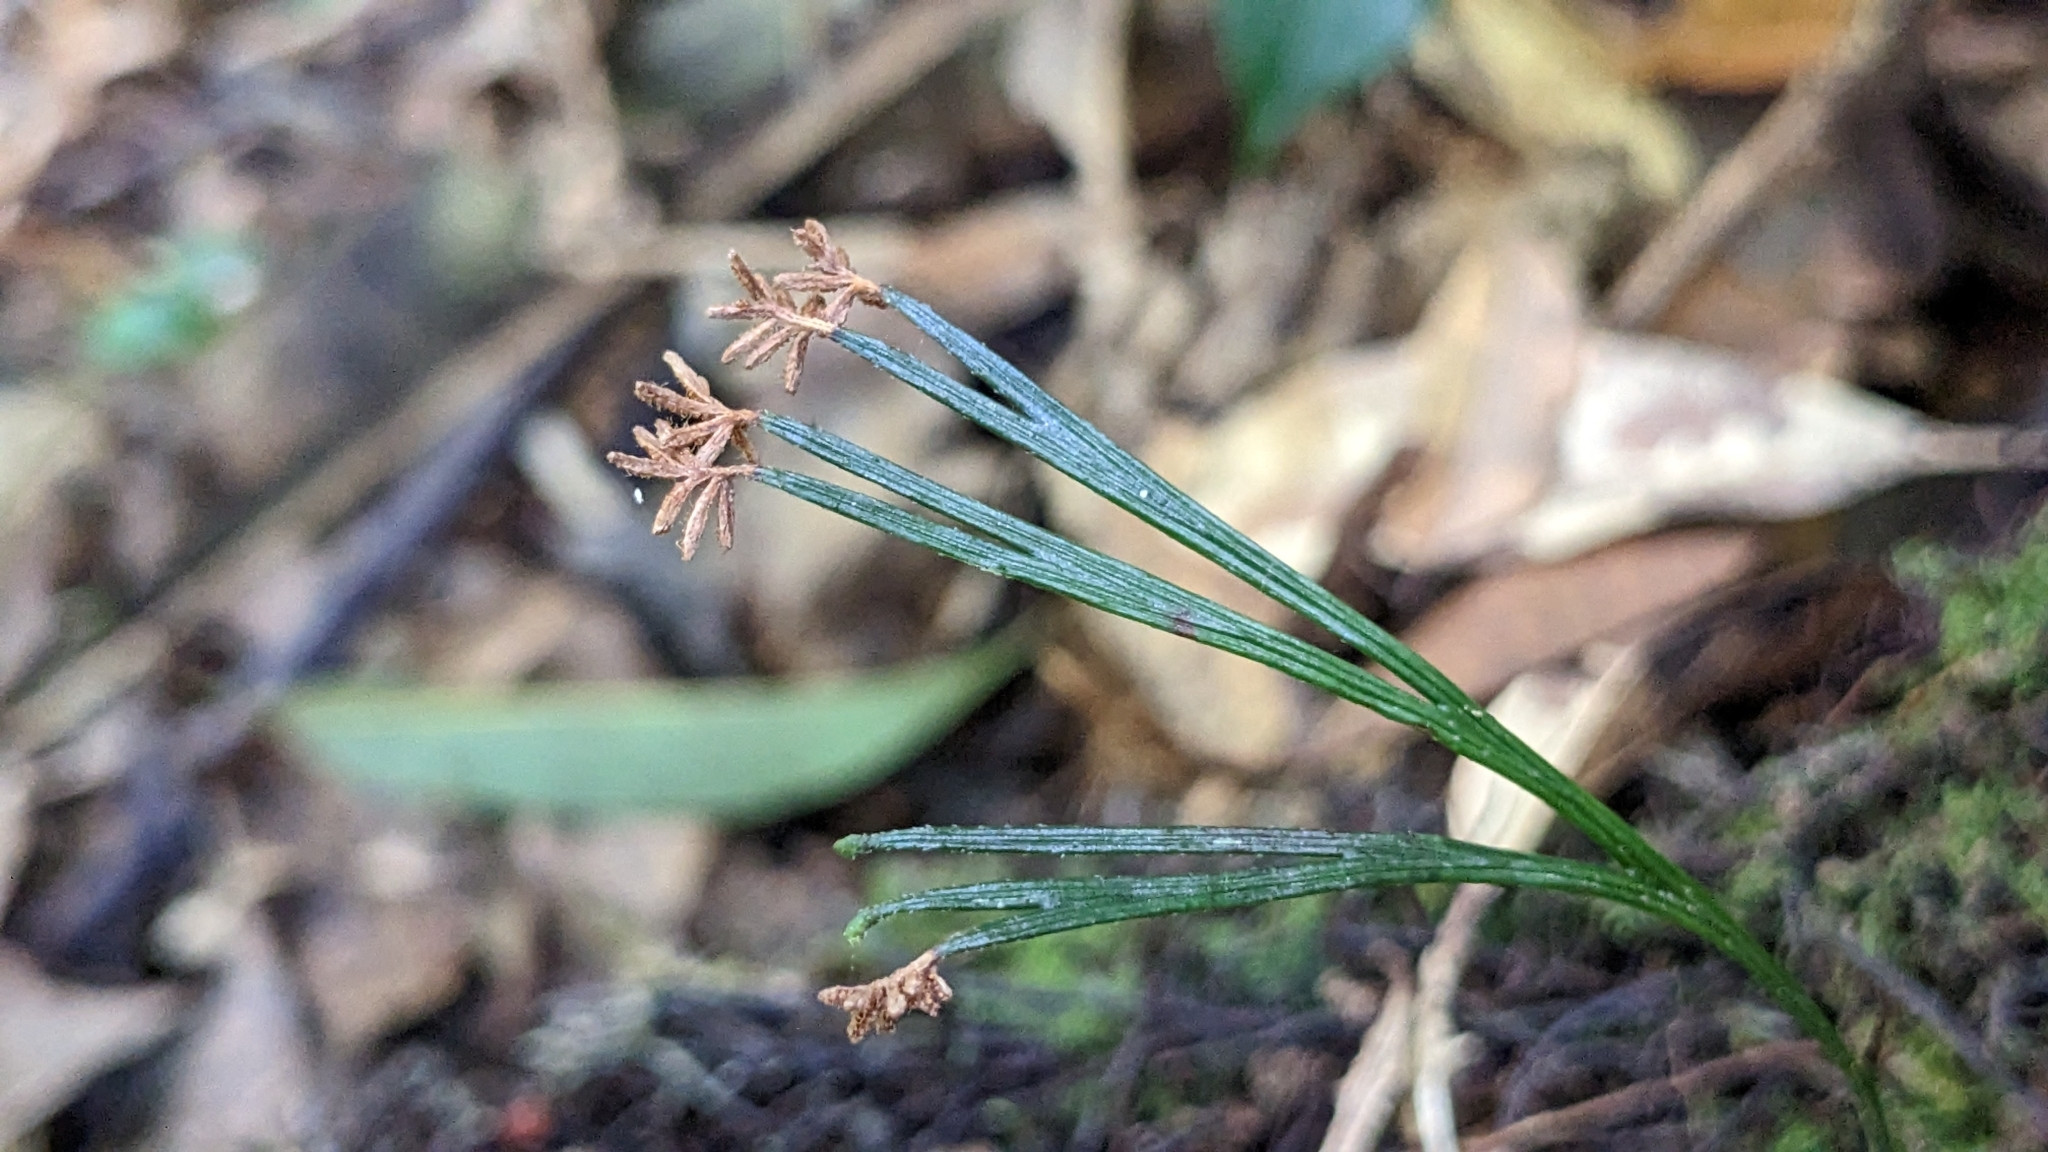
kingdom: Plantae
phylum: Tracheophyta
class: Polypodiopsida
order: Schizaeales
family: Schizaeaceae
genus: Schizaea
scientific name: Schizaea dichotoma
